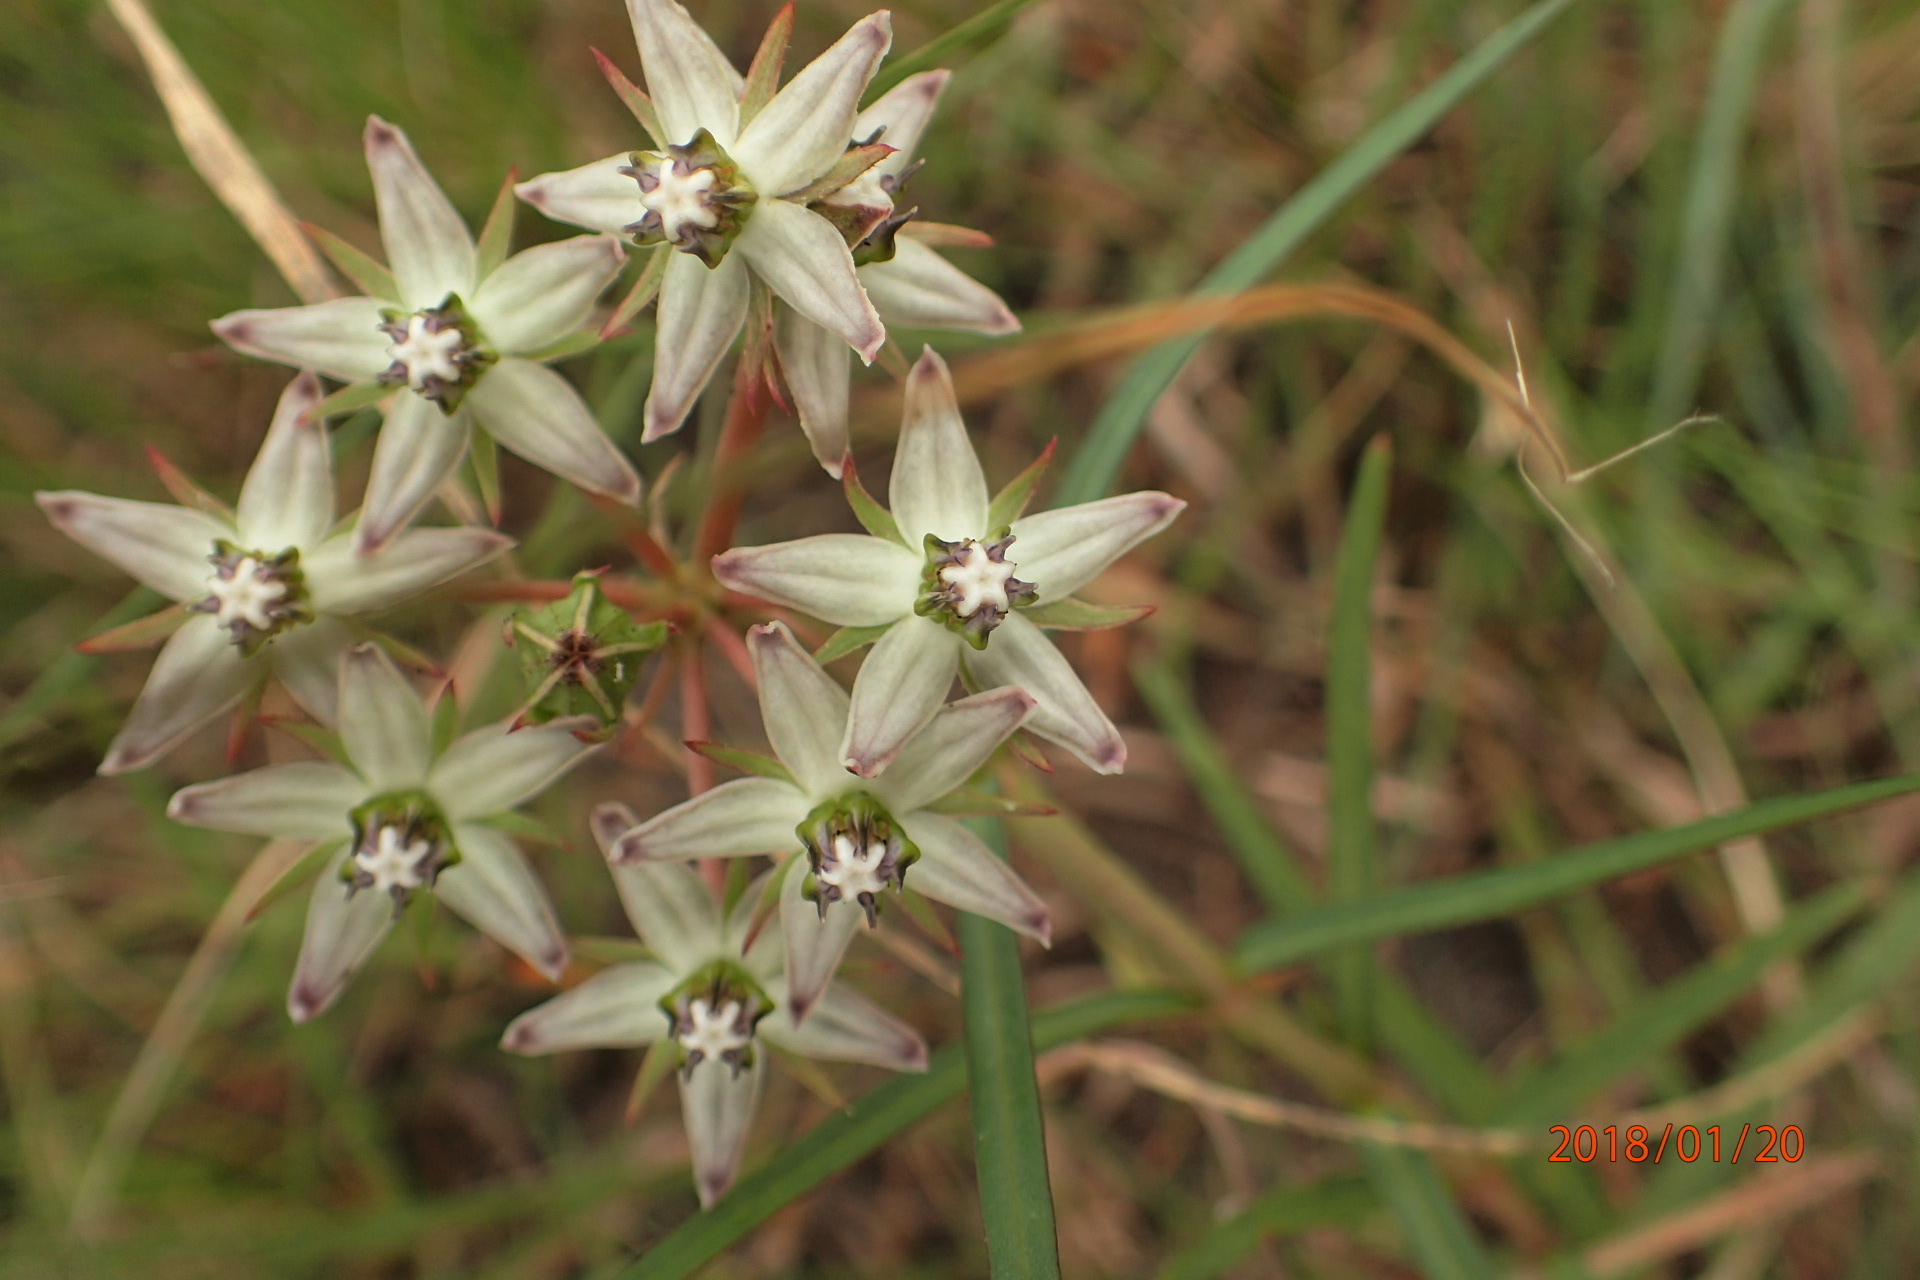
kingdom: Plantae
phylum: Tracheophyta
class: Magnoliopsida
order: Gentianales
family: Apocynaceae
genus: Asclepias
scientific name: Asclepias gibba
